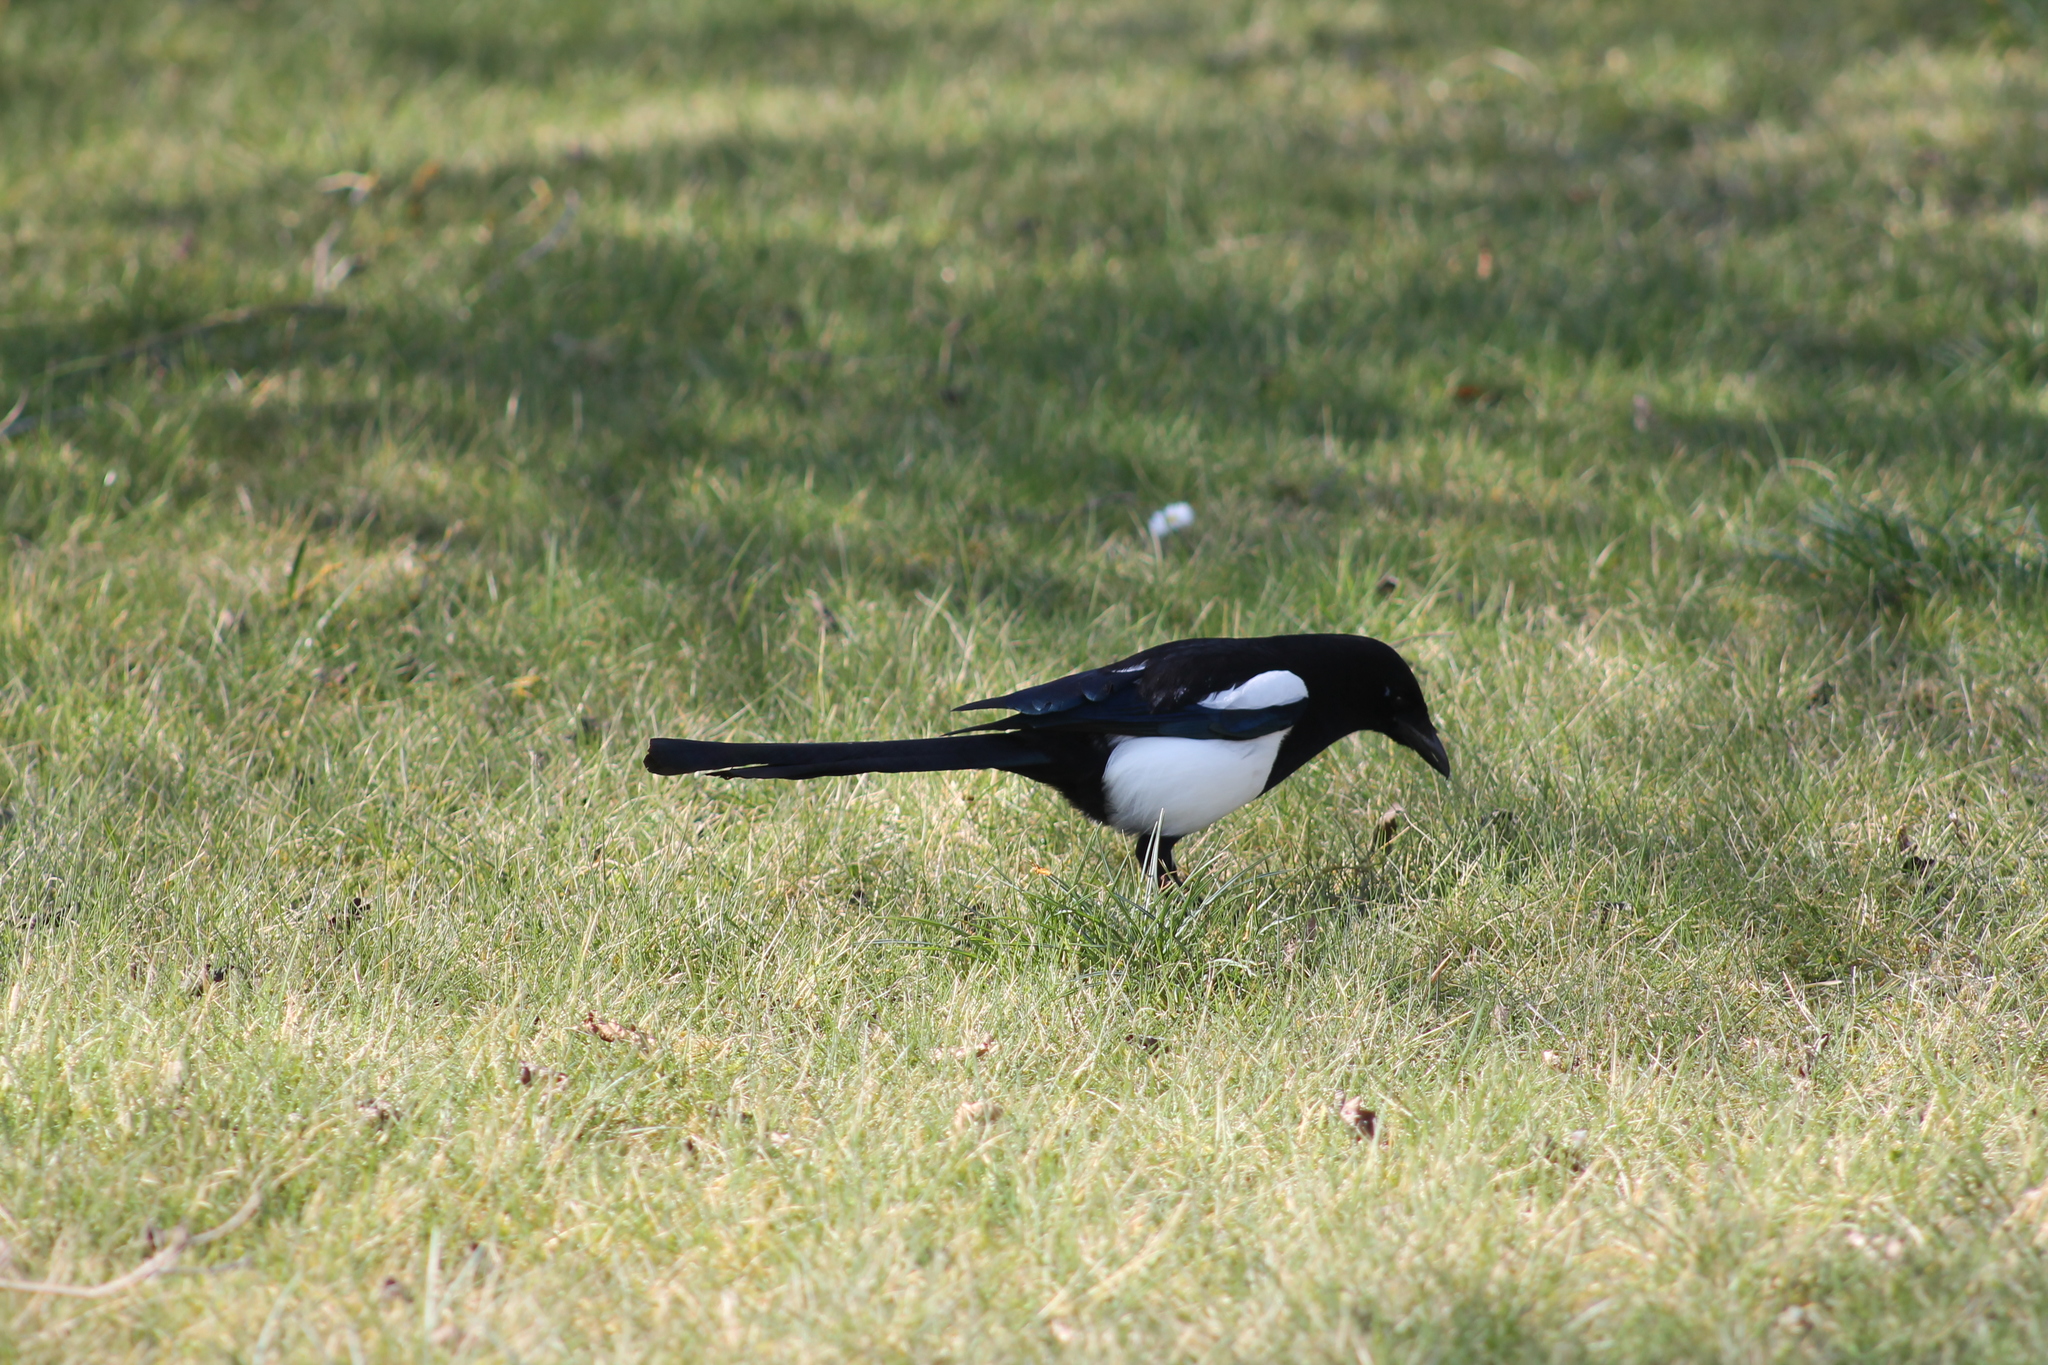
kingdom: Animalia
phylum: Chordata
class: Aves
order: Passeriformes
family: Corvidae
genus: Pica
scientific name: Pica pica
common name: Eurasian magpie
